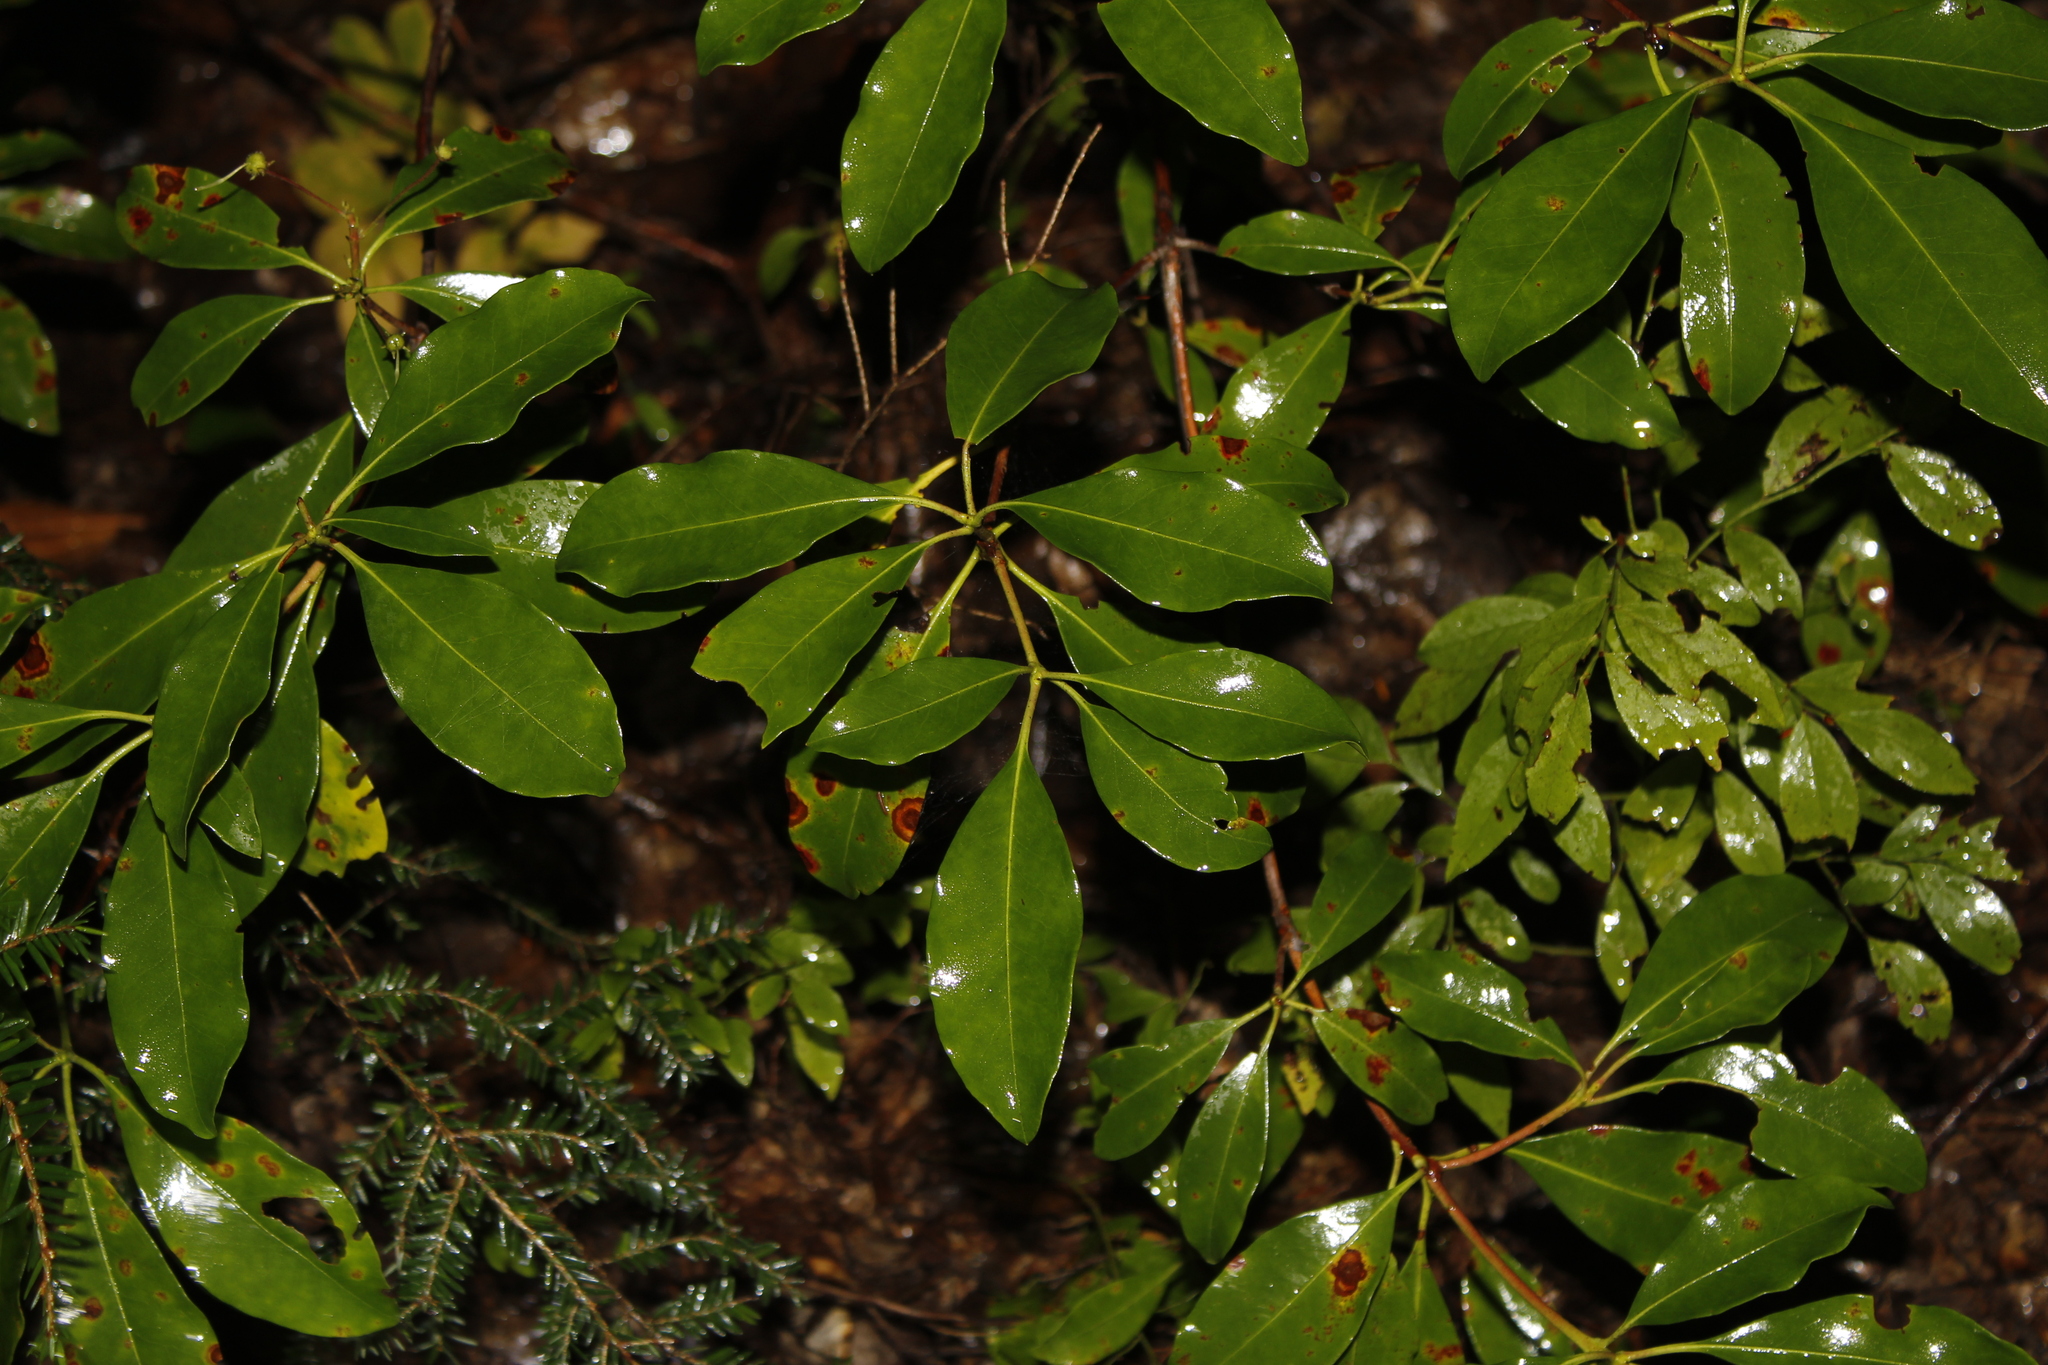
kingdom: Plantae
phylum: Tracheophyta
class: Magnoliopsida
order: Ericales
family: Ericaceae
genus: Kalmia
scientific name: Kalmia latifolia
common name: Mountain-laurel
